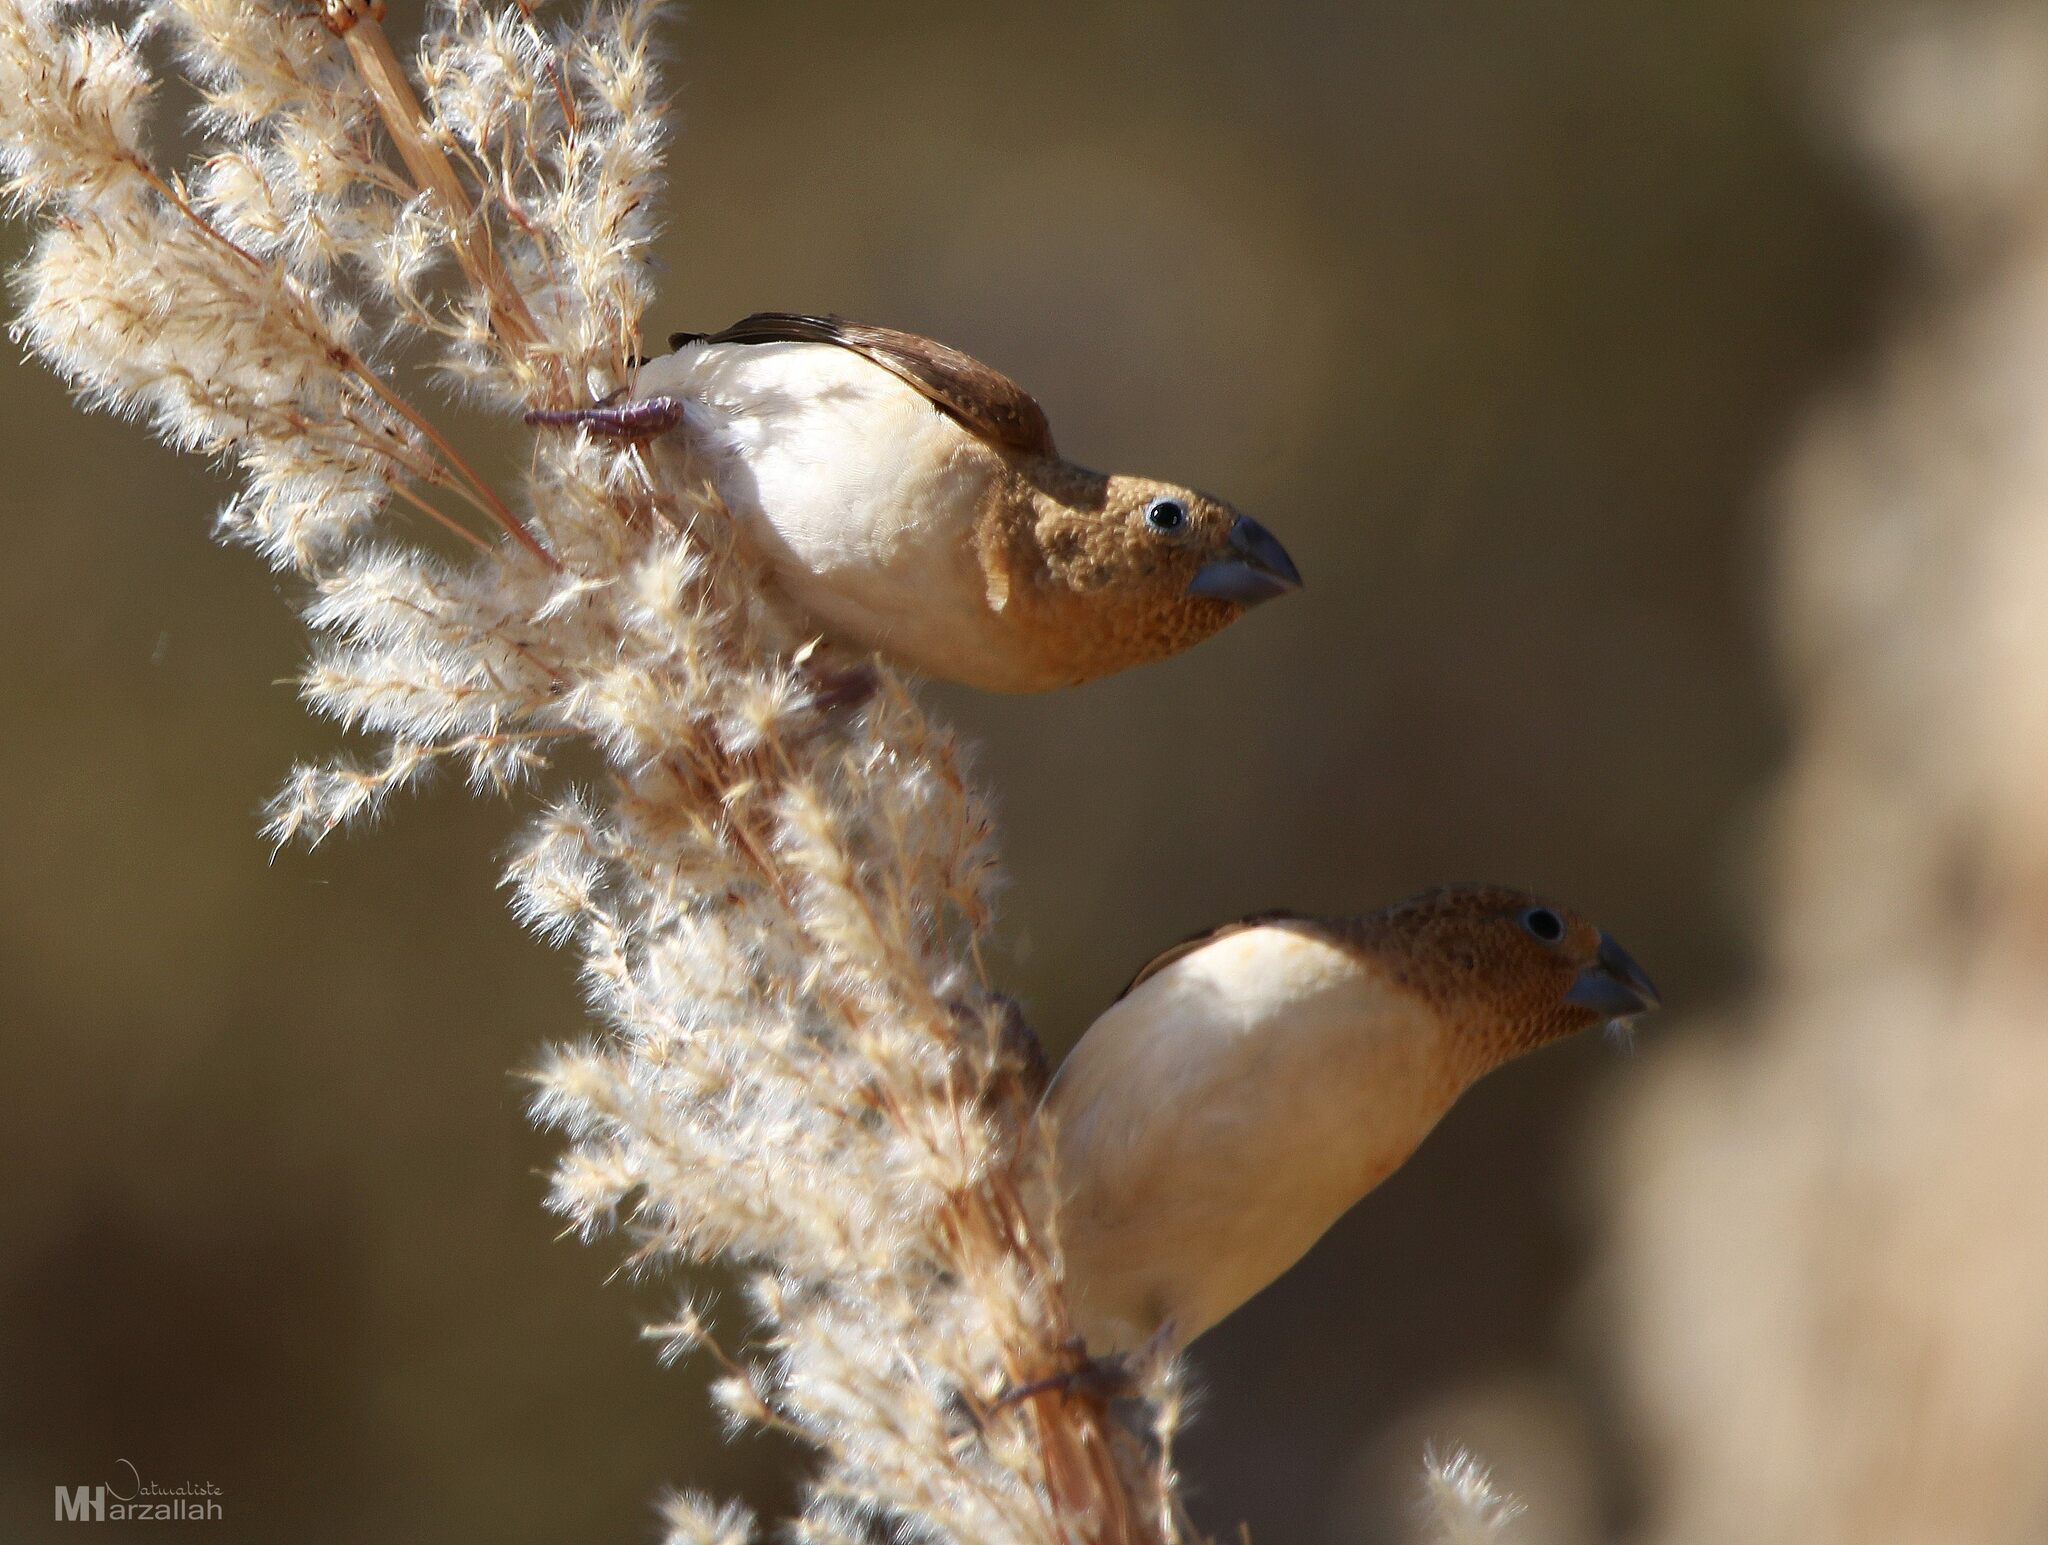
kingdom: Animalia
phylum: Chordata
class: Aves
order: Passeriformes
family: Estrildidae
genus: Euodice
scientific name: Euodice cantans
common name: African silverbill
